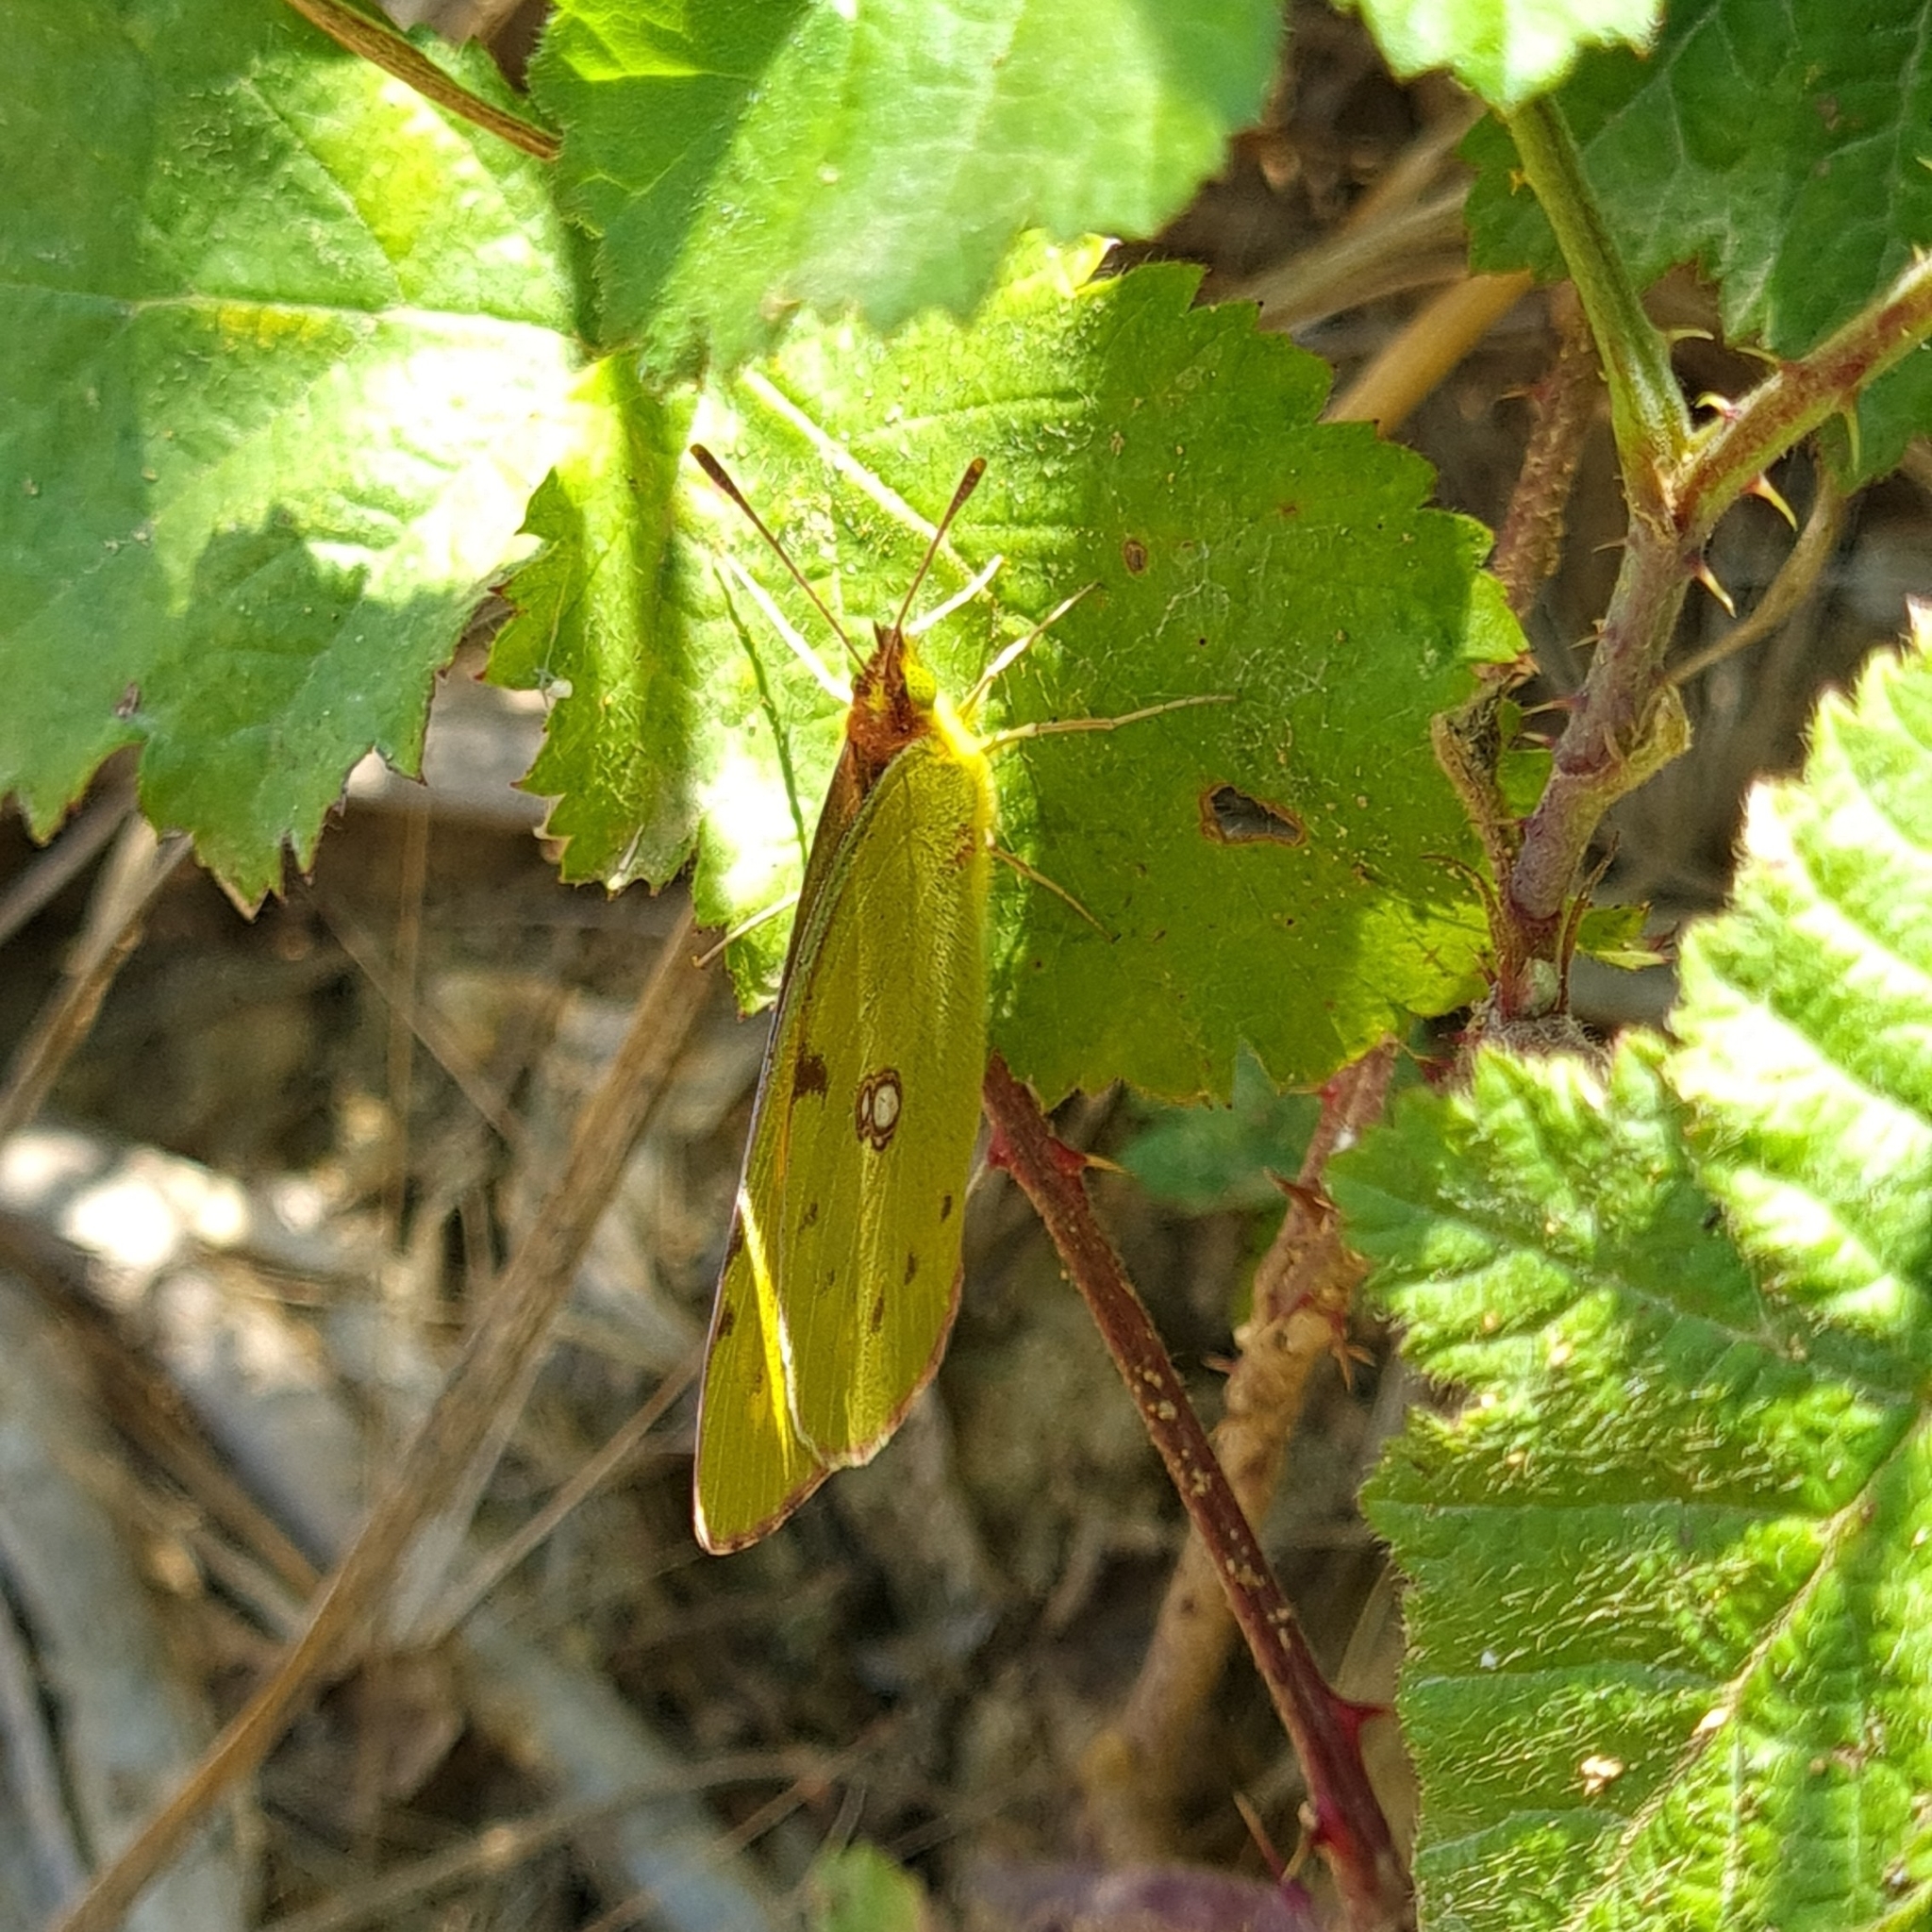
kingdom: Animalia
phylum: Arthropoda
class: Insecta
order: Lepidoptera
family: Pieridae
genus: Colias
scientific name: Colias croceus
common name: Clouded yellow
